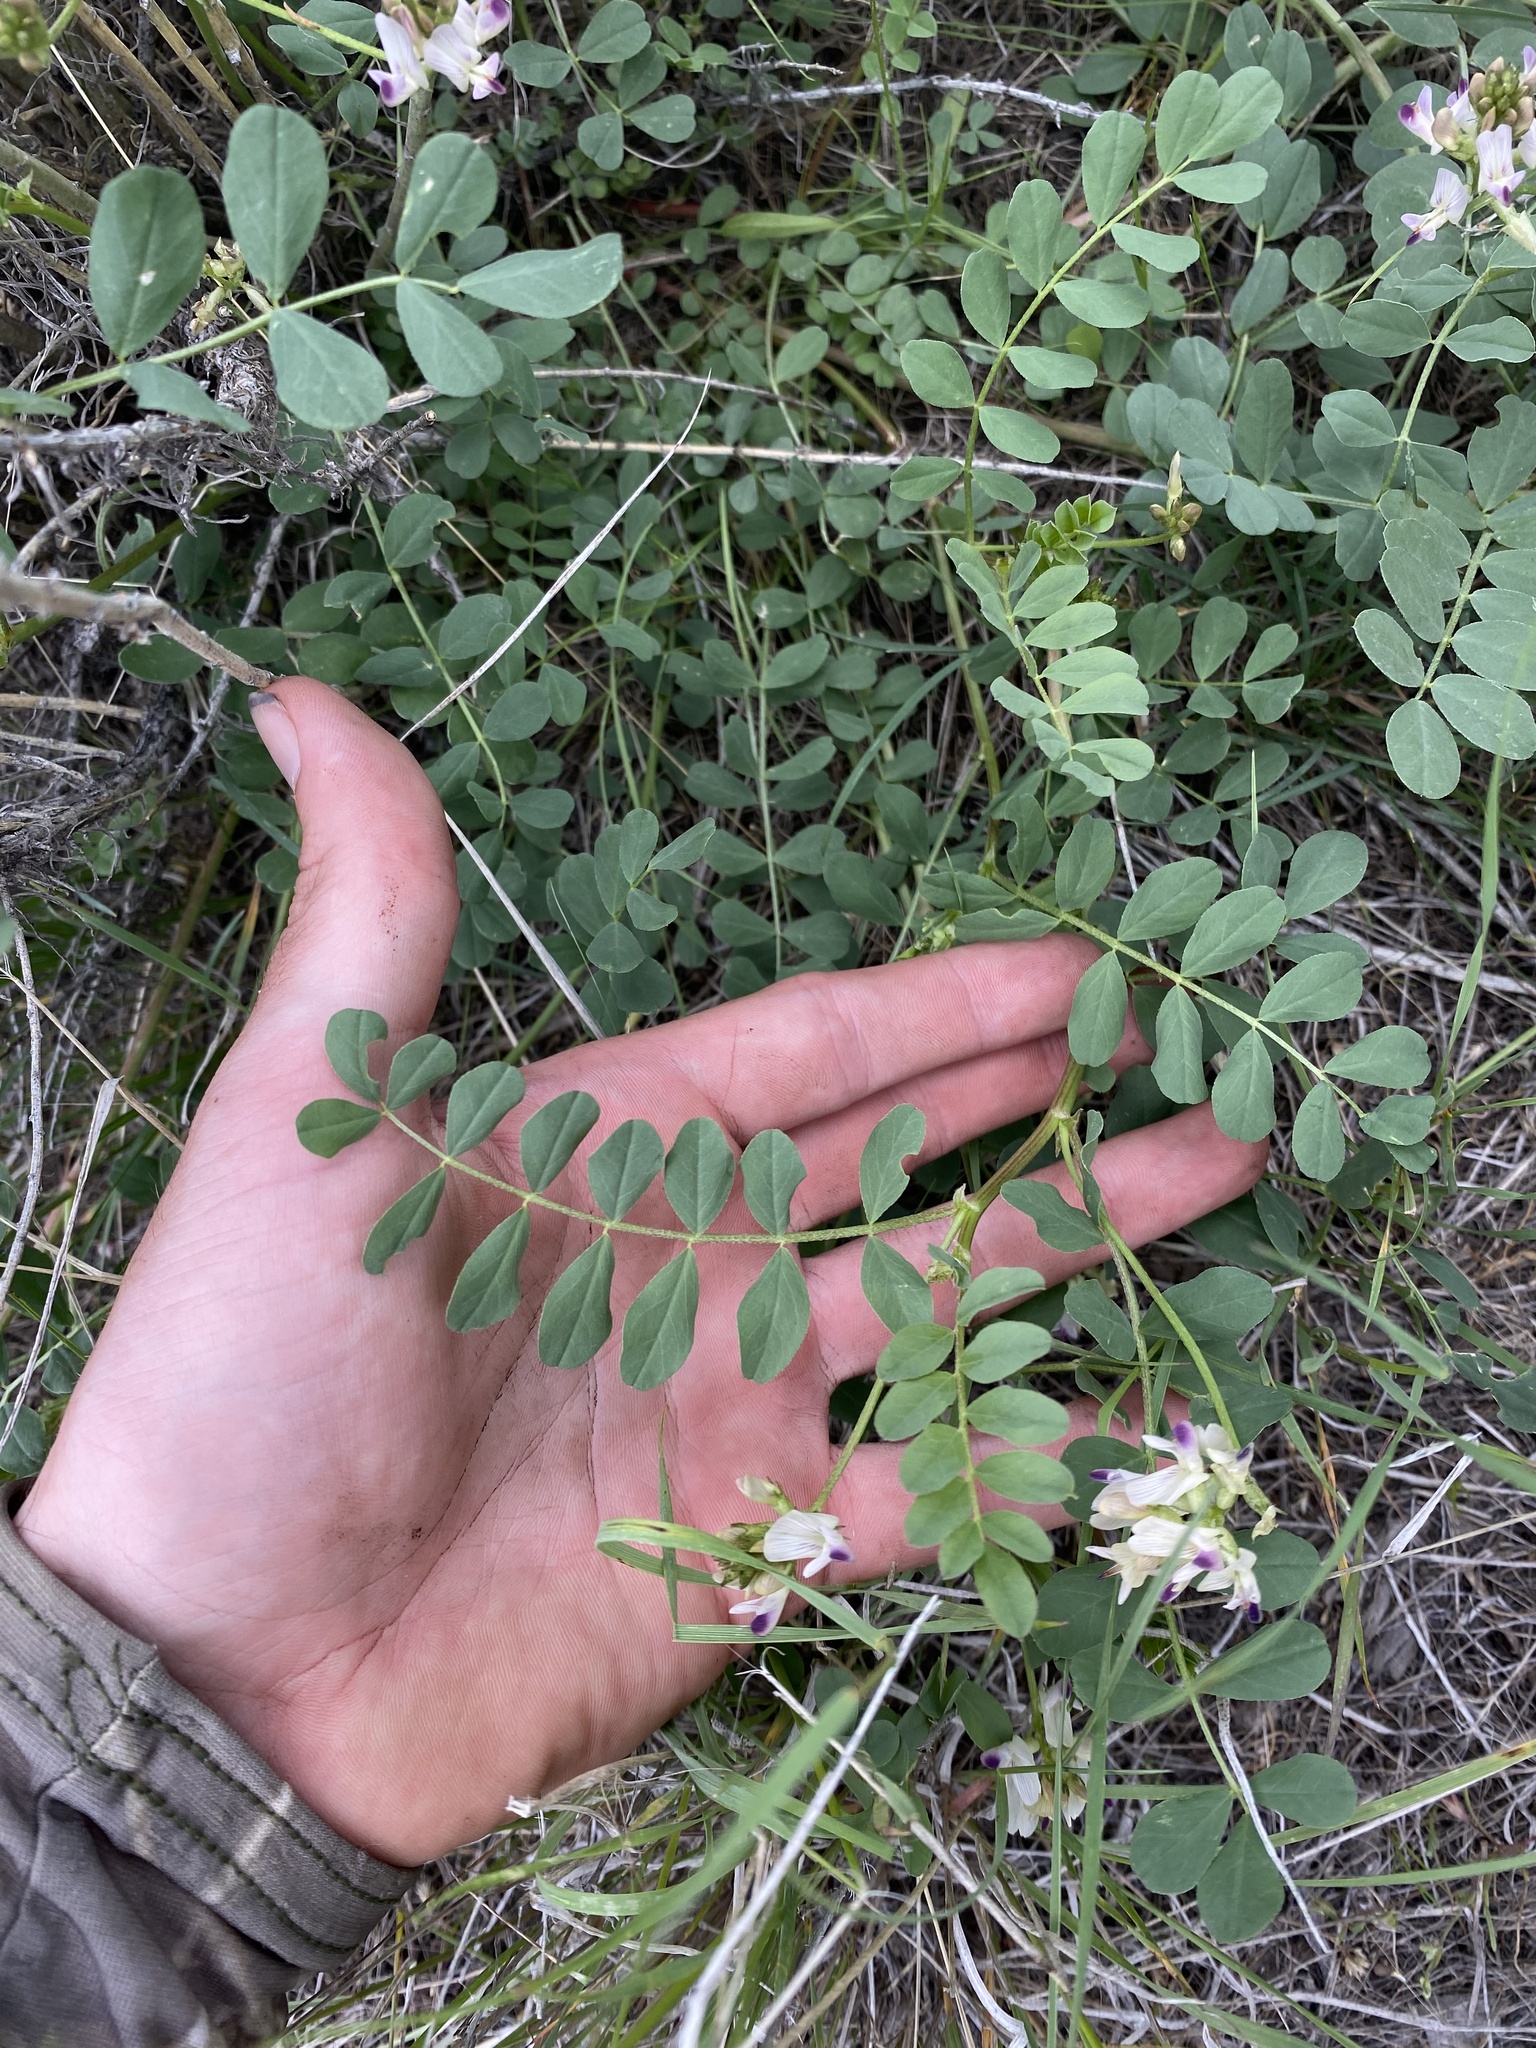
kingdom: Plantae
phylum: Tracheophyta
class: Magnoliopsida
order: Fabales
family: Fabaceae
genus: Astragalus
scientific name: Astragalus lentiginosus
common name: Freckled milkvetch
